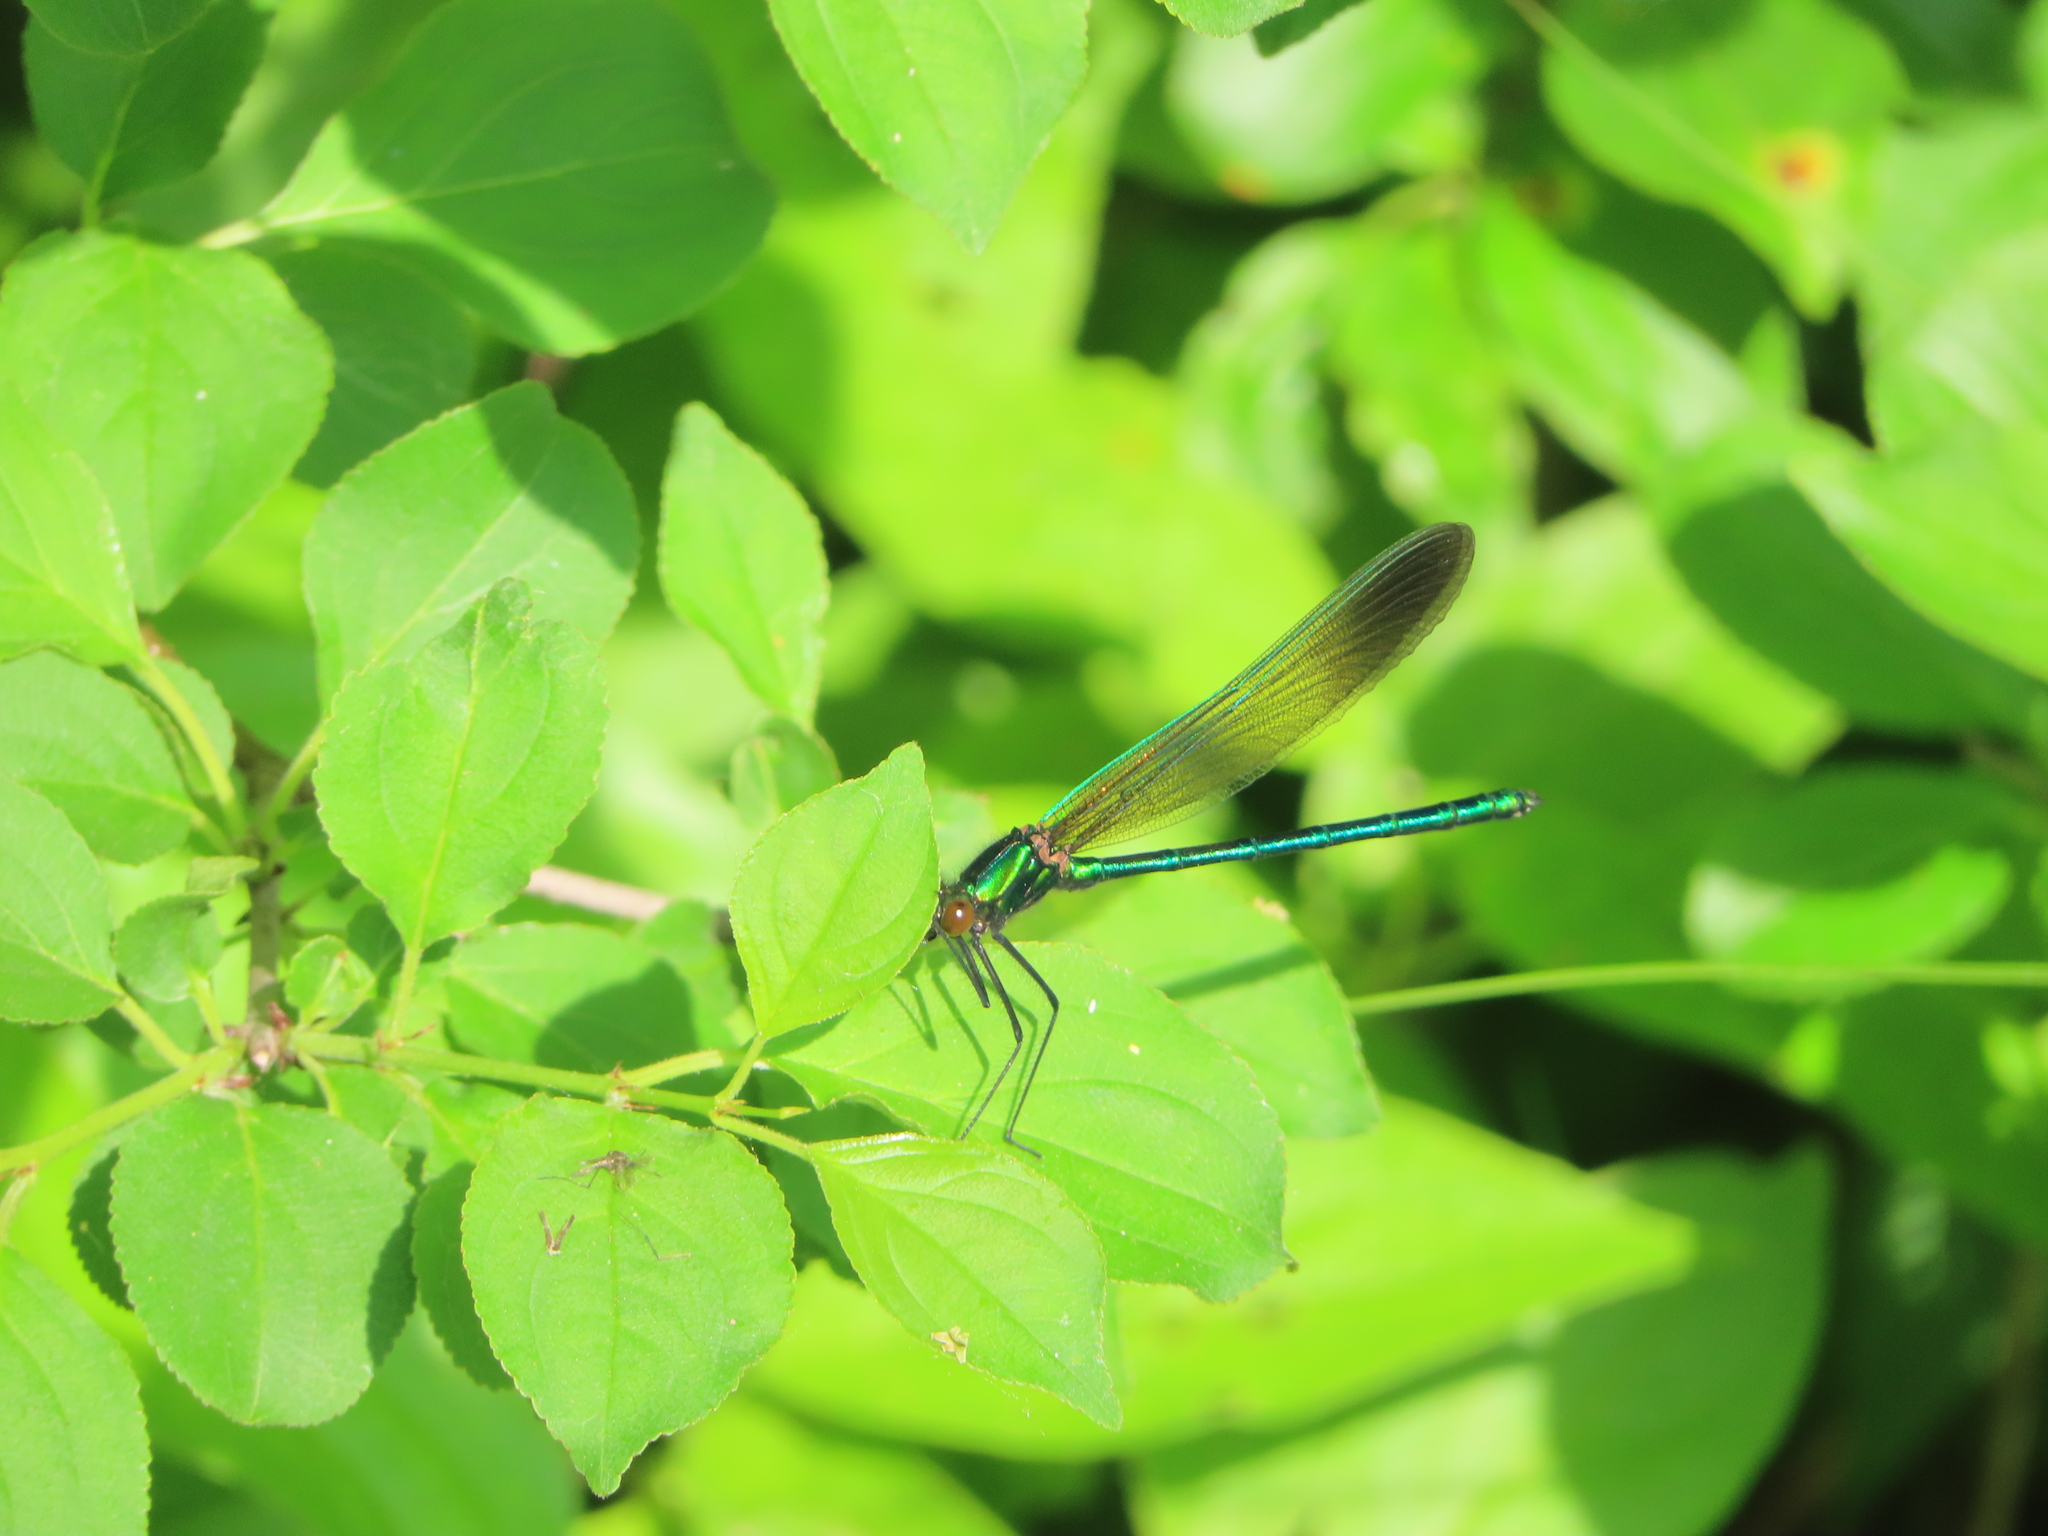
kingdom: Animalia
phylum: Arthropoda
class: Insecta
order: Odonata
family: Calopterygidae
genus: Calopteryx
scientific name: Calopteryx aequabilis
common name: River jewelwing
